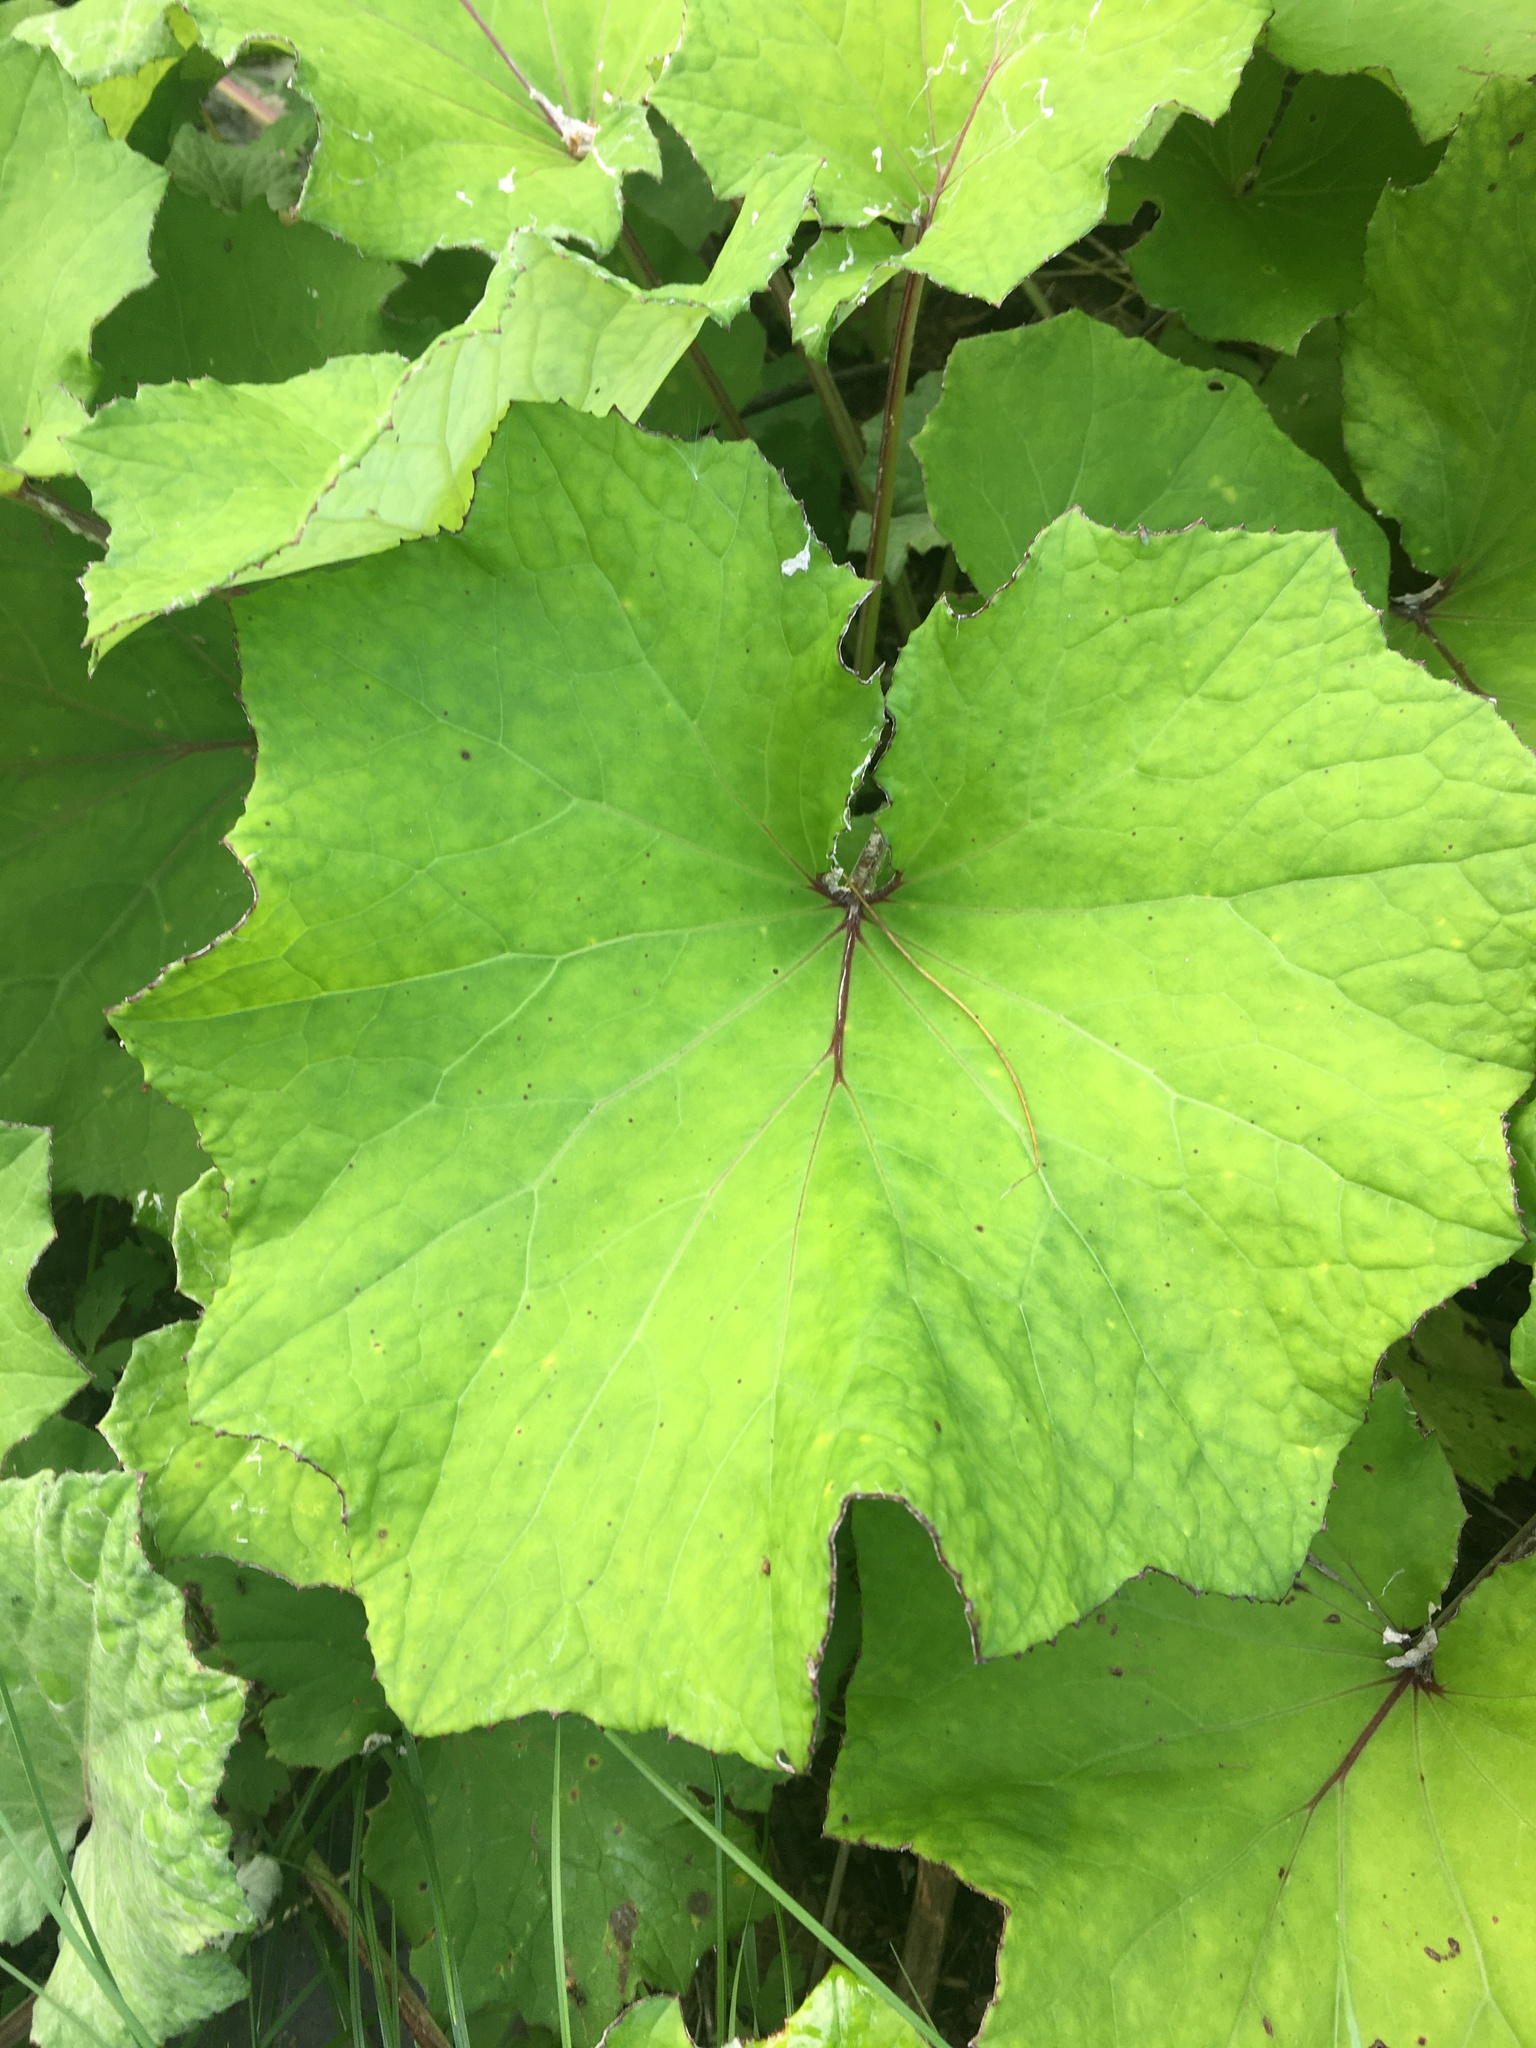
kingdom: Plantae
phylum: Tracheophyta
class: Magnoliopsida
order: Asterales
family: Asteraceae
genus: Tussilago
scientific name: Tussilago farfara
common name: Coltsfoot
